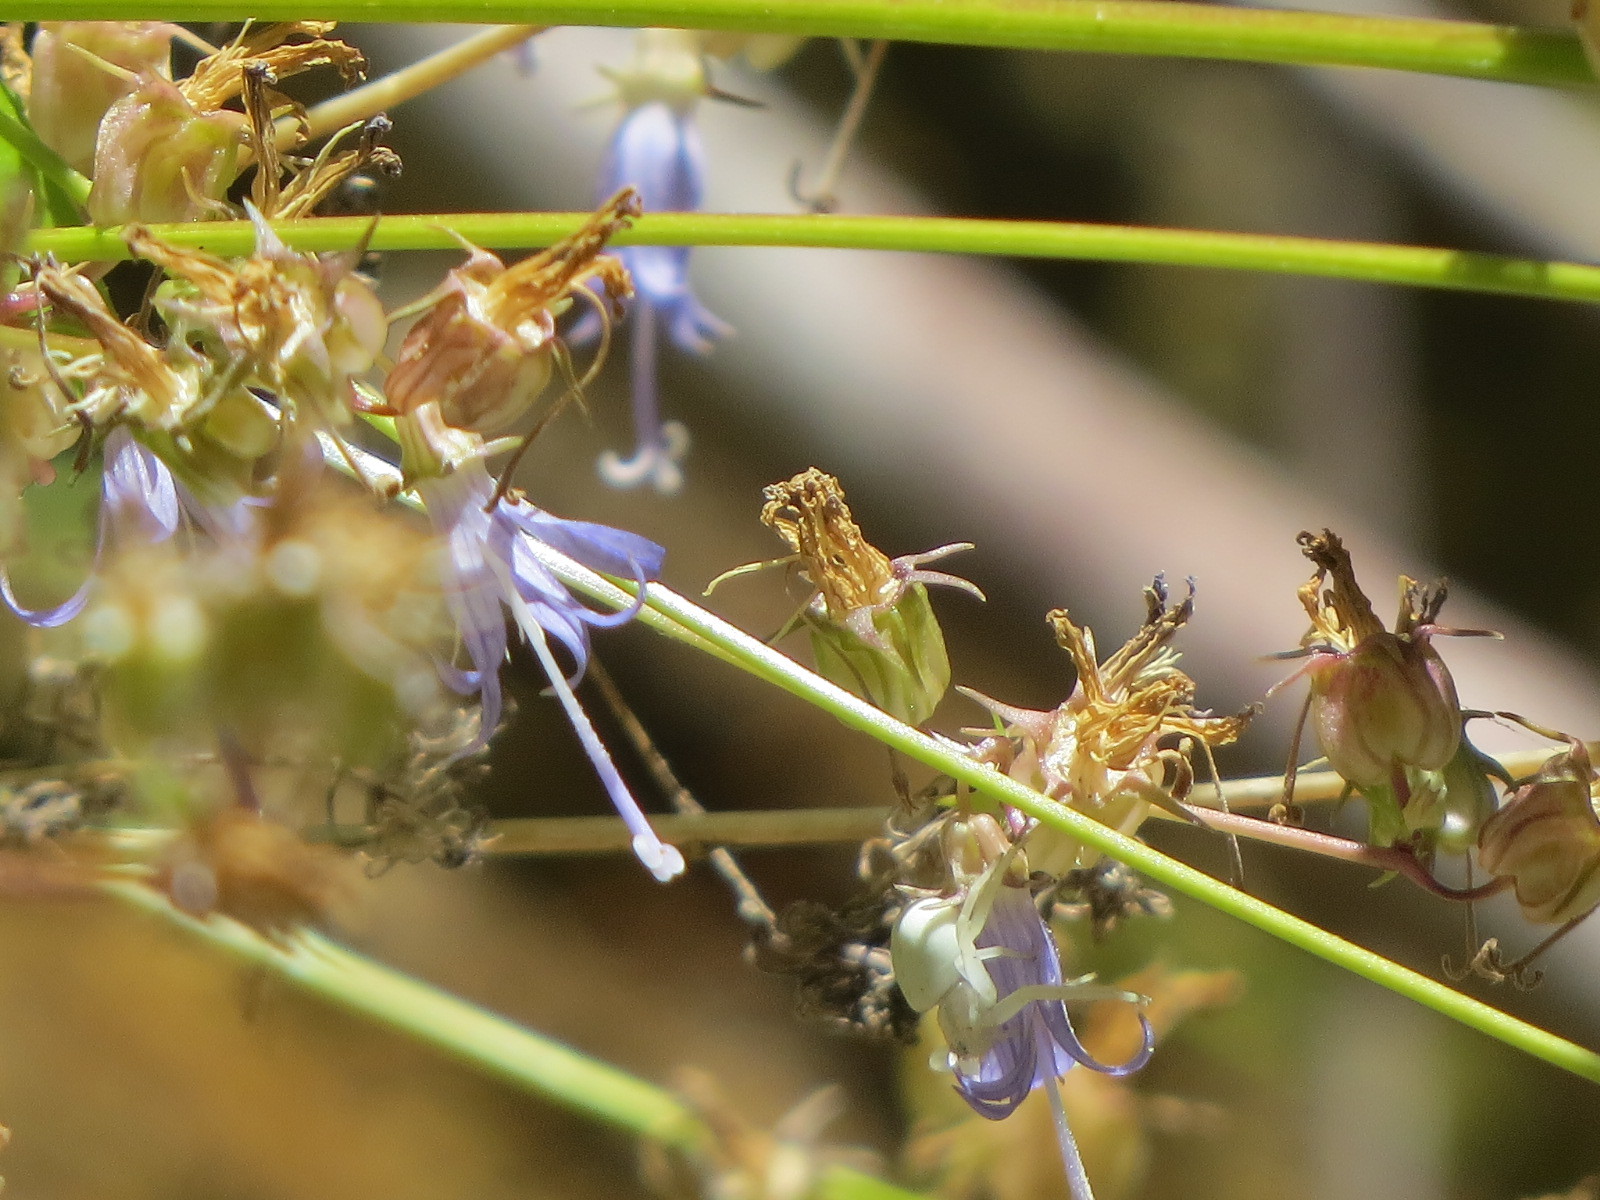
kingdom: Plantae
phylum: Tracheophyta
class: Magnoliopsida
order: Asterales
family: Campanulaceae
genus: Smithiastrum
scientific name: Smithiastrum prenanthoides
